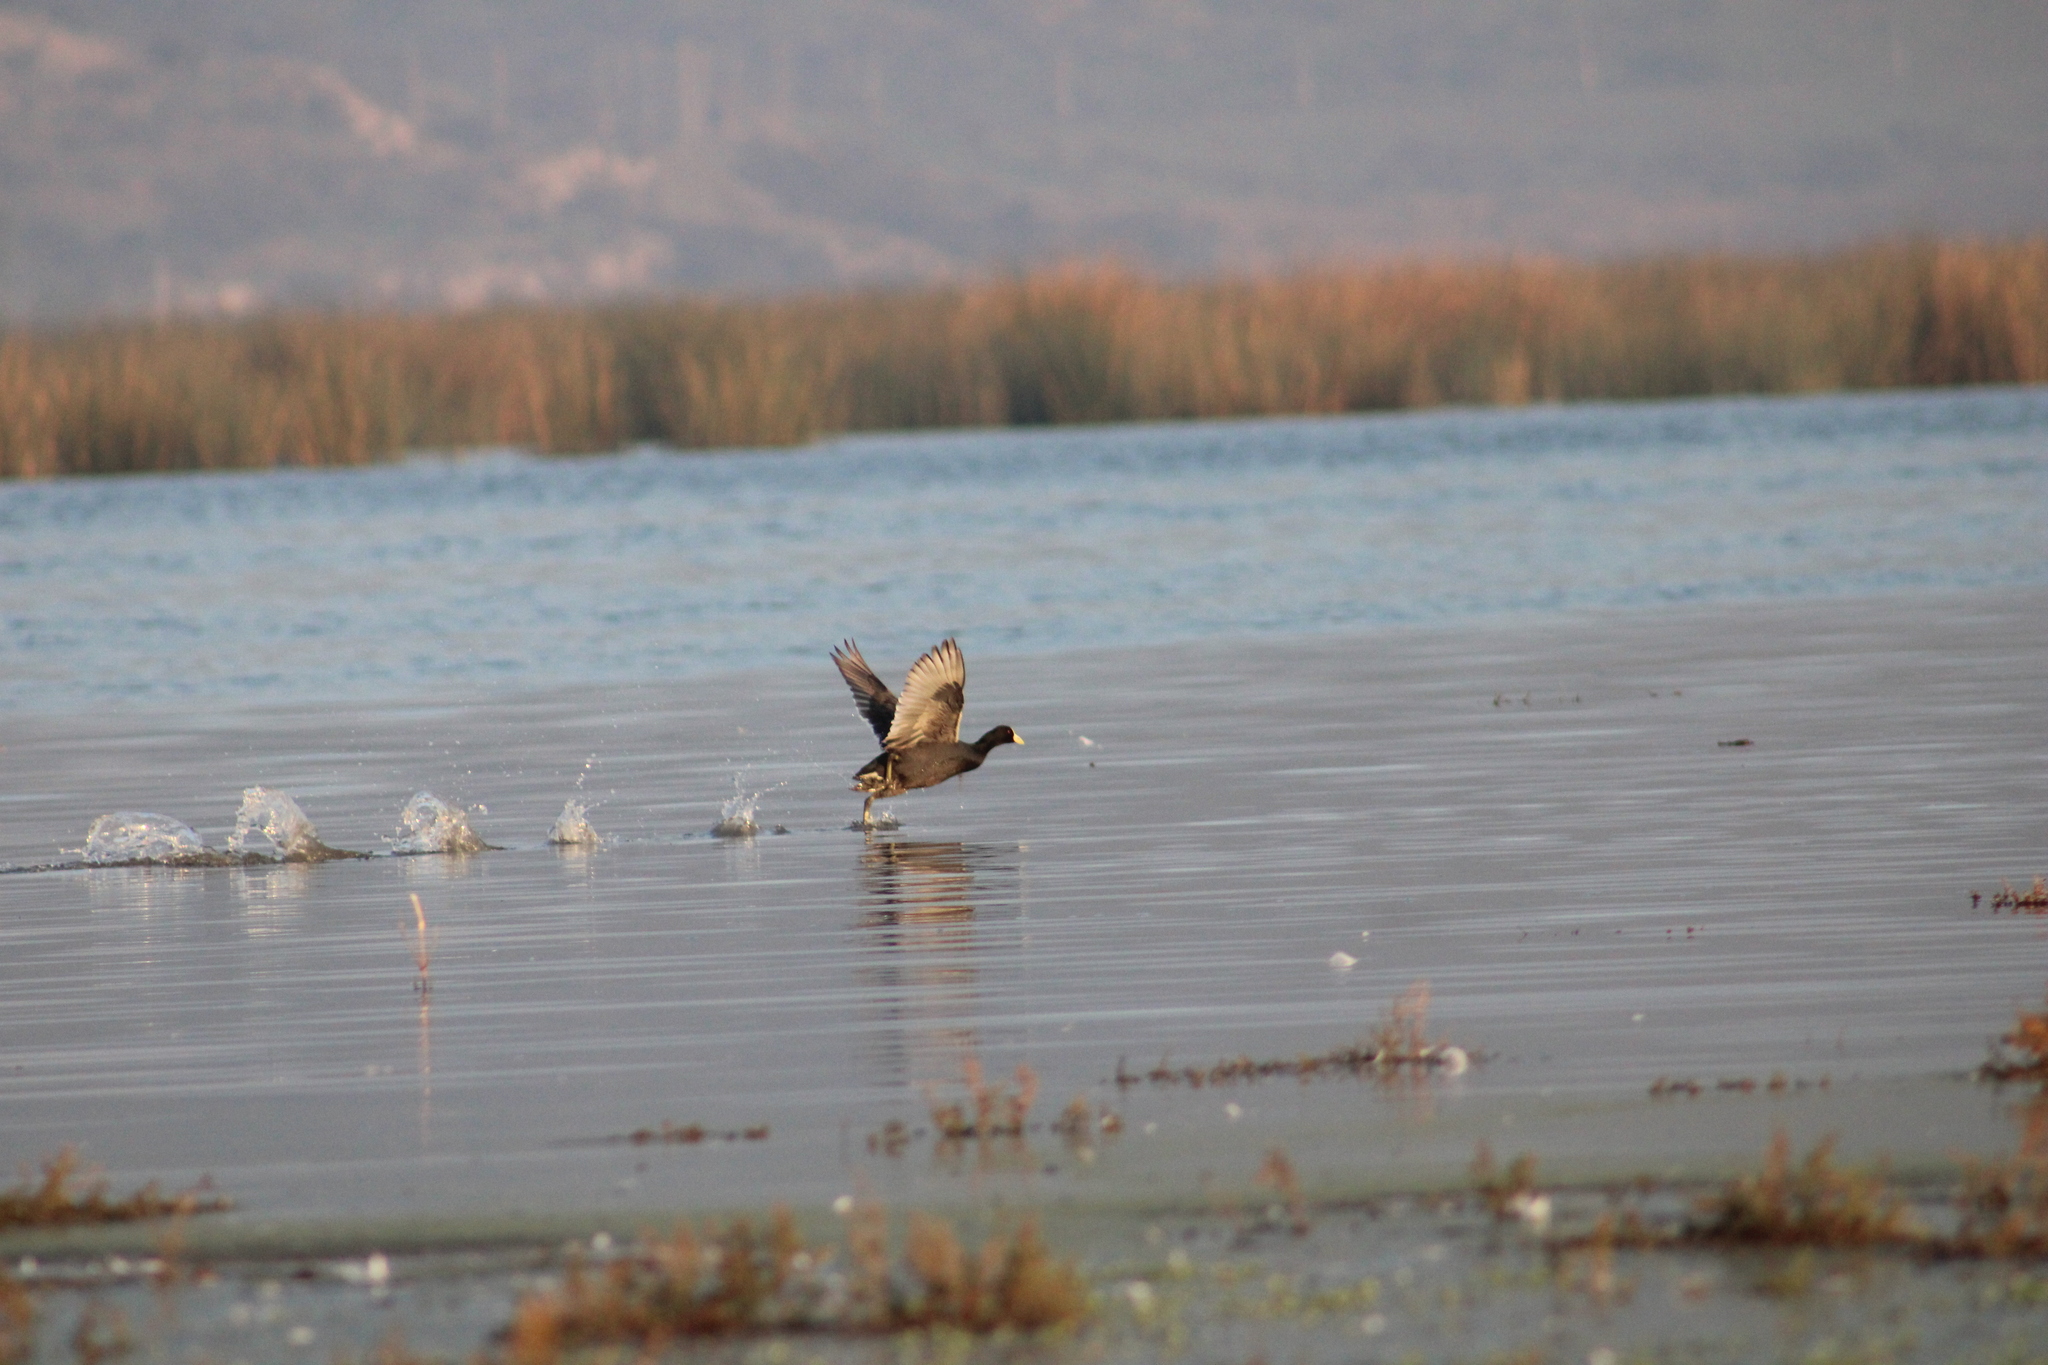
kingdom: Animalia
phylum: Chordata
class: Aves
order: Gruiformes
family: Rallidae
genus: Fulica
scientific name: Fulica armillata
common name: Red-gartered coot
